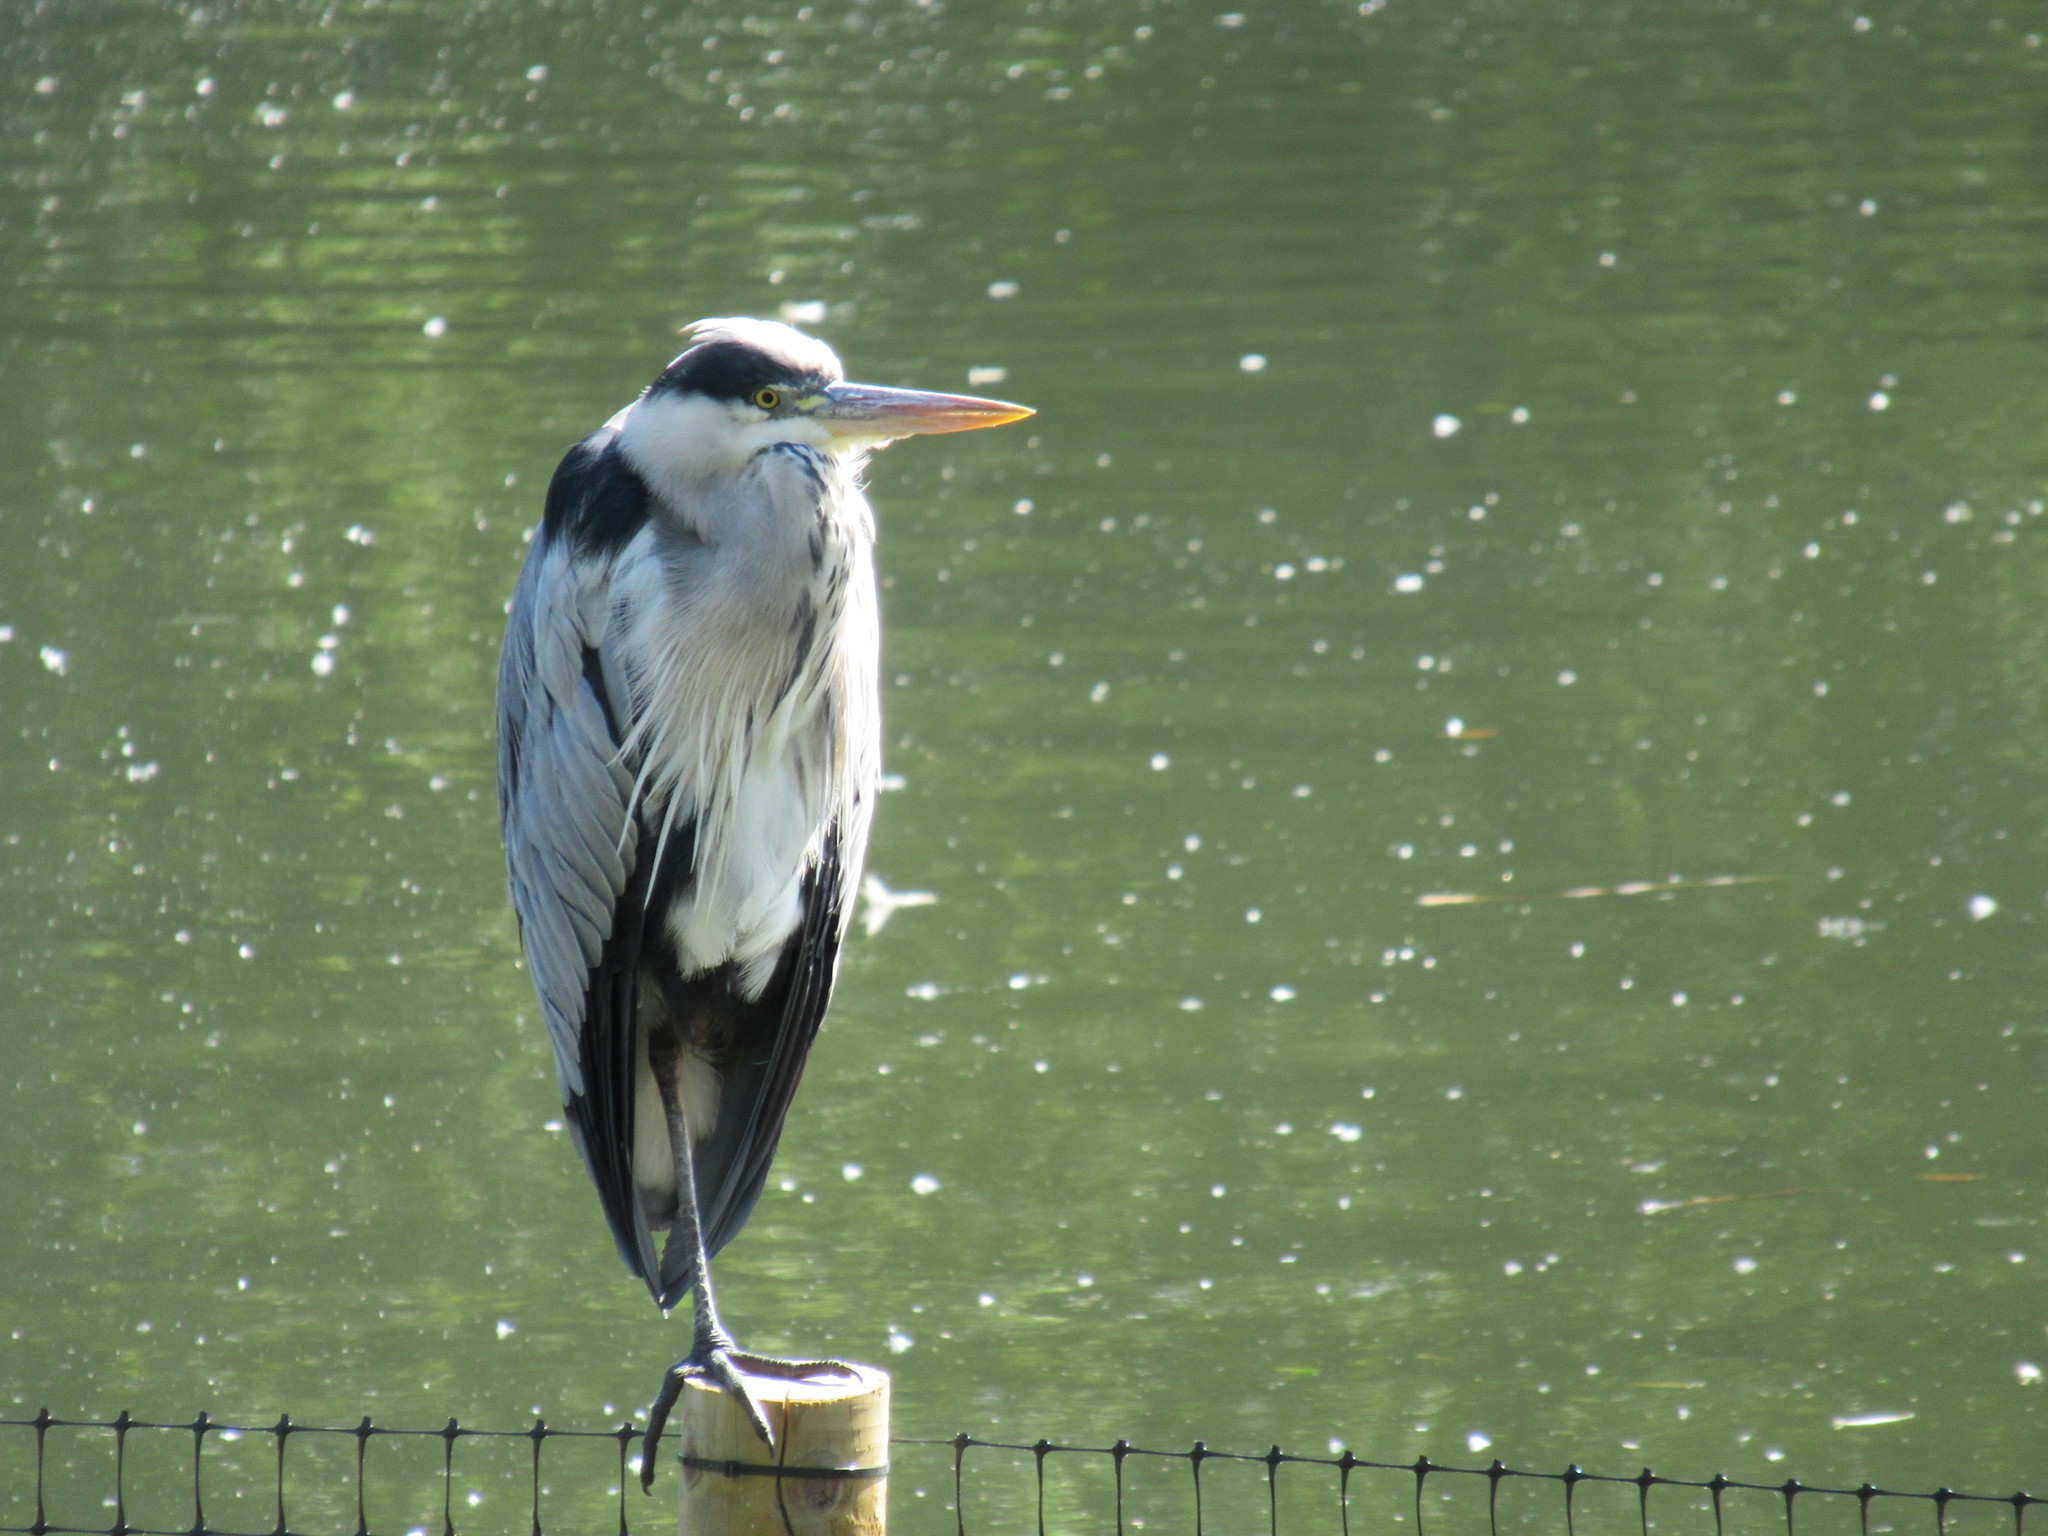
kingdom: Animalia
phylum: Chordata
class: Aves
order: Pelecaniformes
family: Ardeidae
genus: Ardea
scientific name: Ardea cinerea
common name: Grey heron
